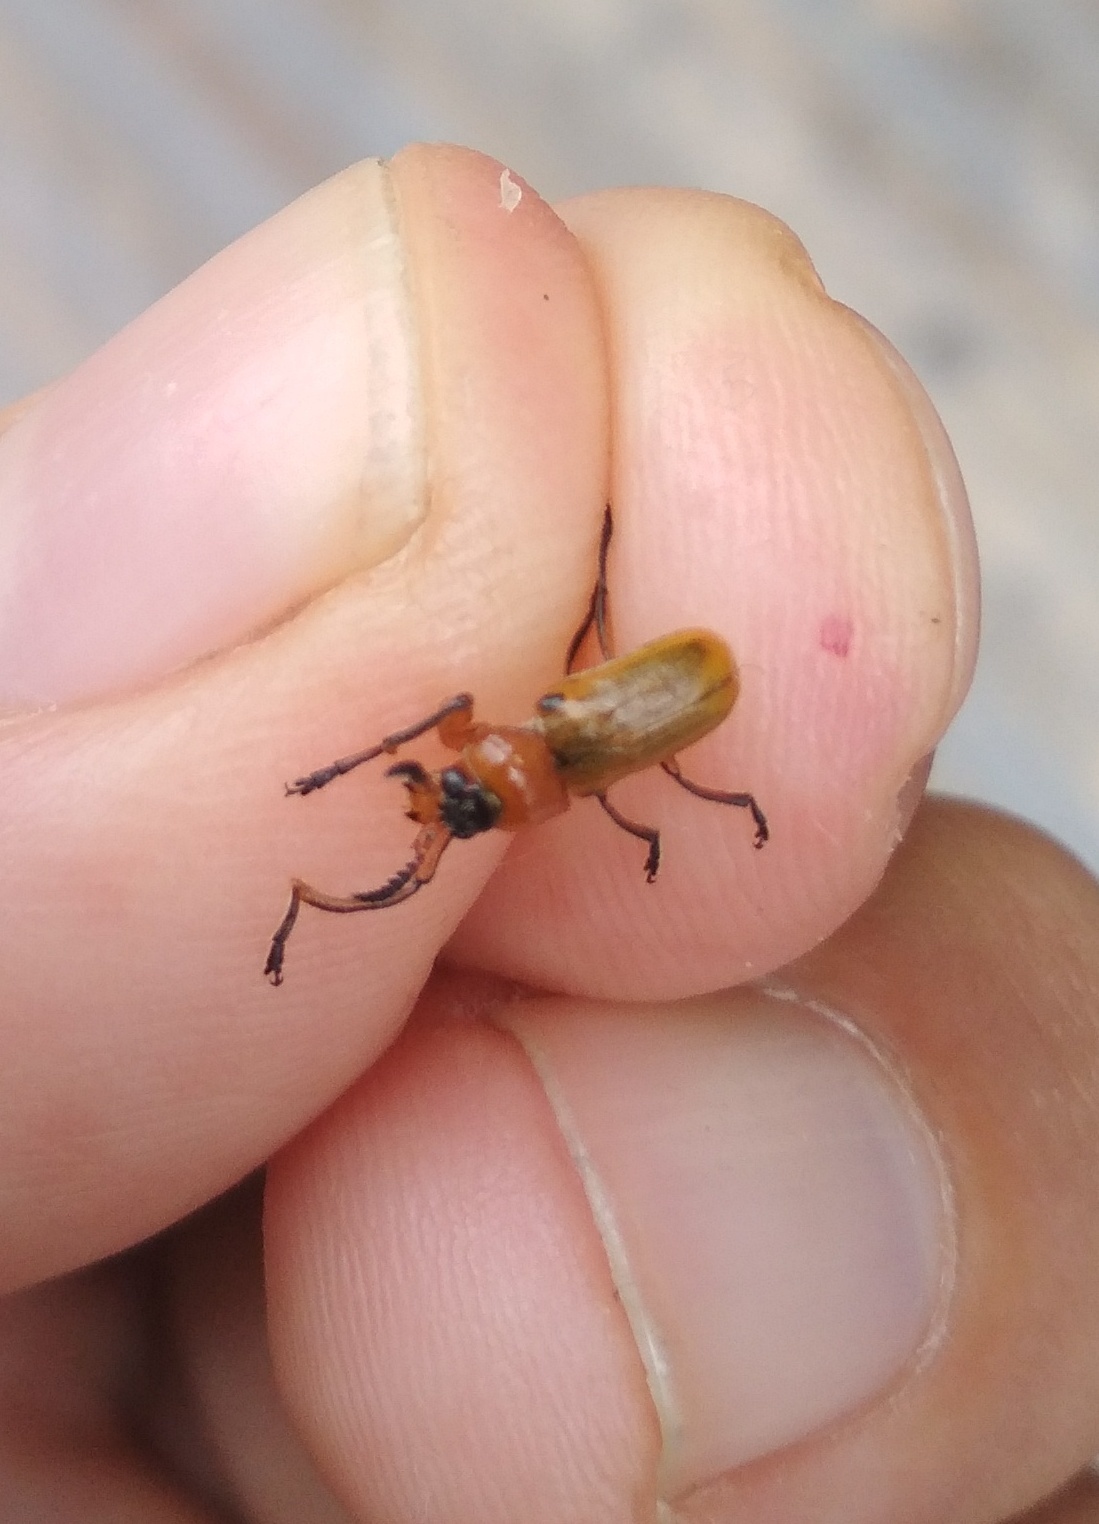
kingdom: Animalia
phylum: Arthropoda
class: Insecta
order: Coleoptera
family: Chrysomelidae
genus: Macrolenes
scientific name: Macrolenes dentipes
